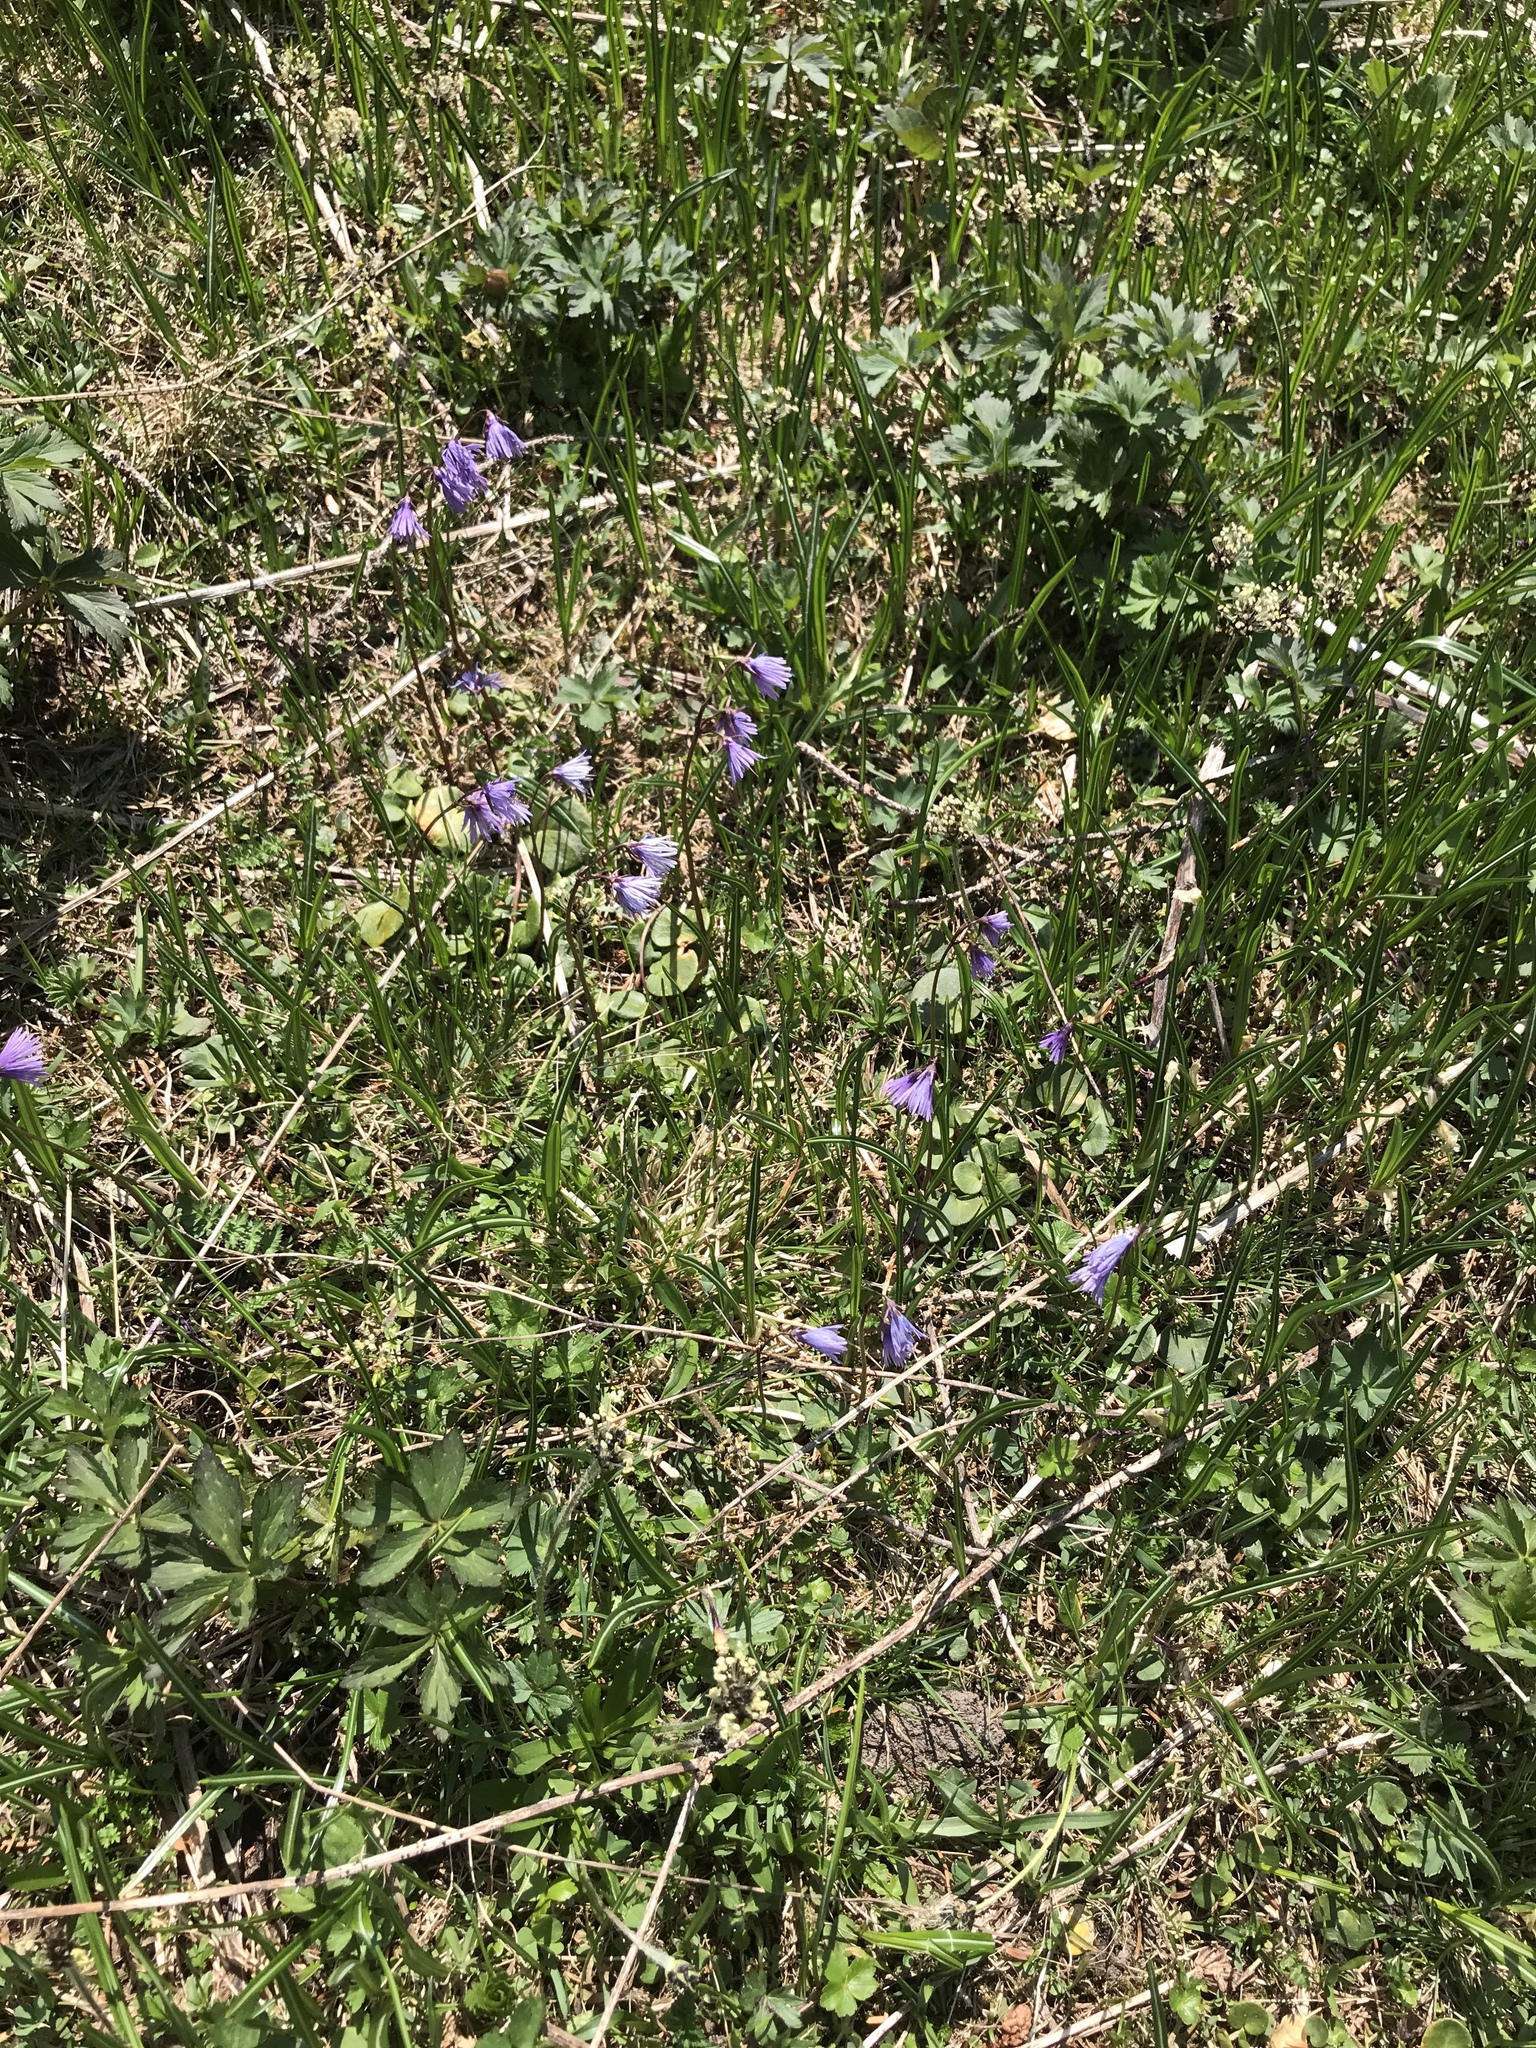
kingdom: Plantae
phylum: Tracheophyta
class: Magnoliopsida
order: Ericales
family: Primulaceae
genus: Soldanella
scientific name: Soldanella alpina
